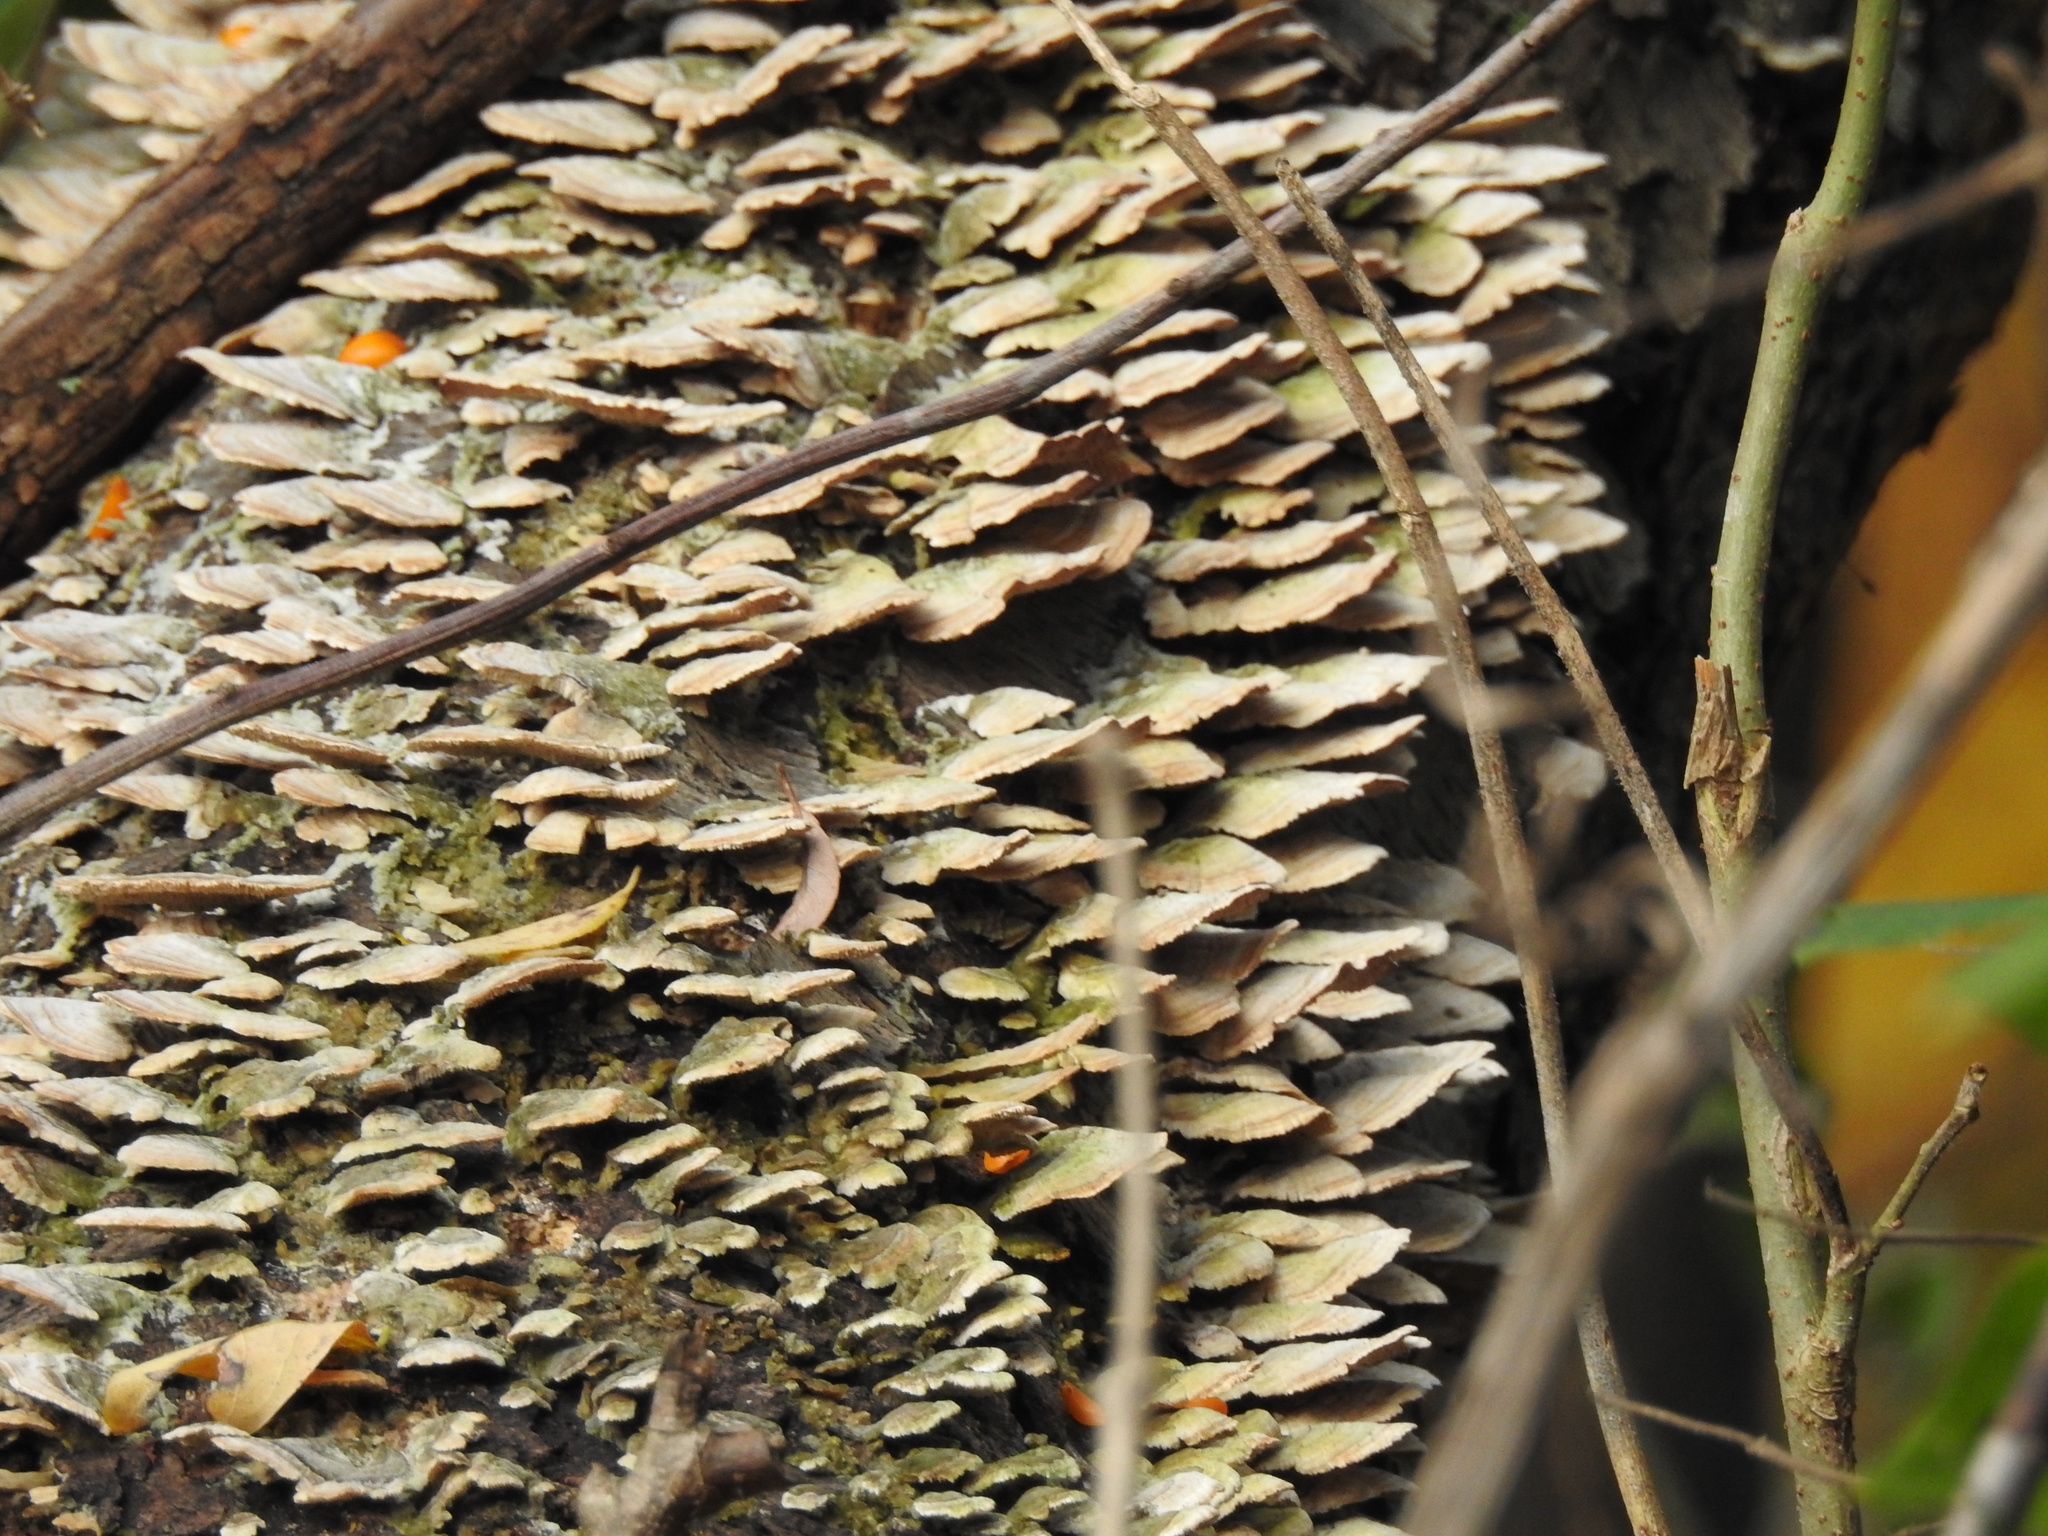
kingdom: Fungi
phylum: Basidiomycota
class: Agaricomycetes
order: Hymenochaetales
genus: Trichaptum
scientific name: Trichaptum biforme
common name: Violet-toothed polypore
